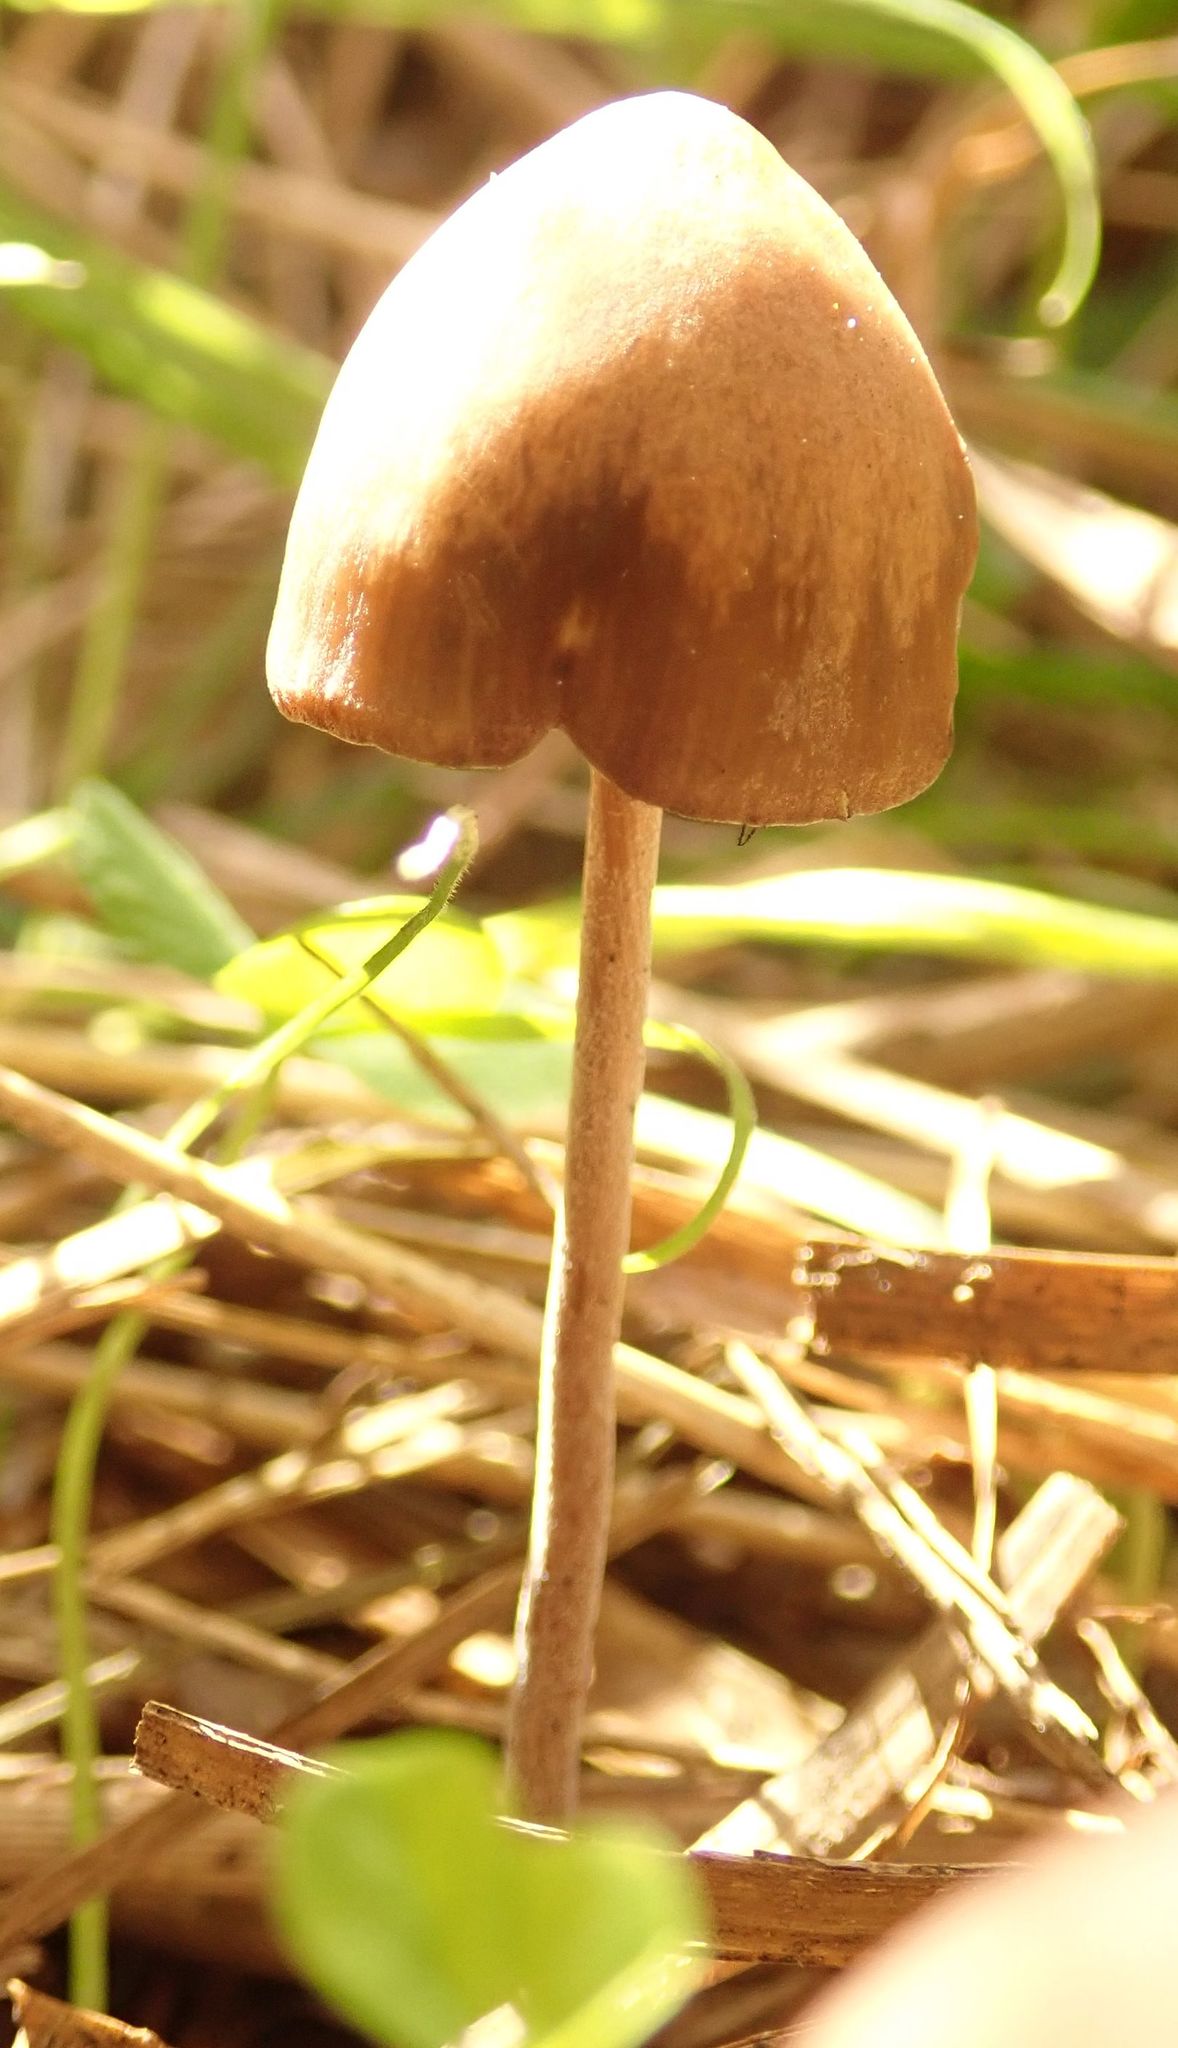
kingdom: Fungi
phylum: Basidiomycota
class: Agaricomycetes
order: Agaricales
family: Bolbitiaceae
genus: Panaeolina
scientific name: Panaeolina foenisecii
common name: Brown hay cap
